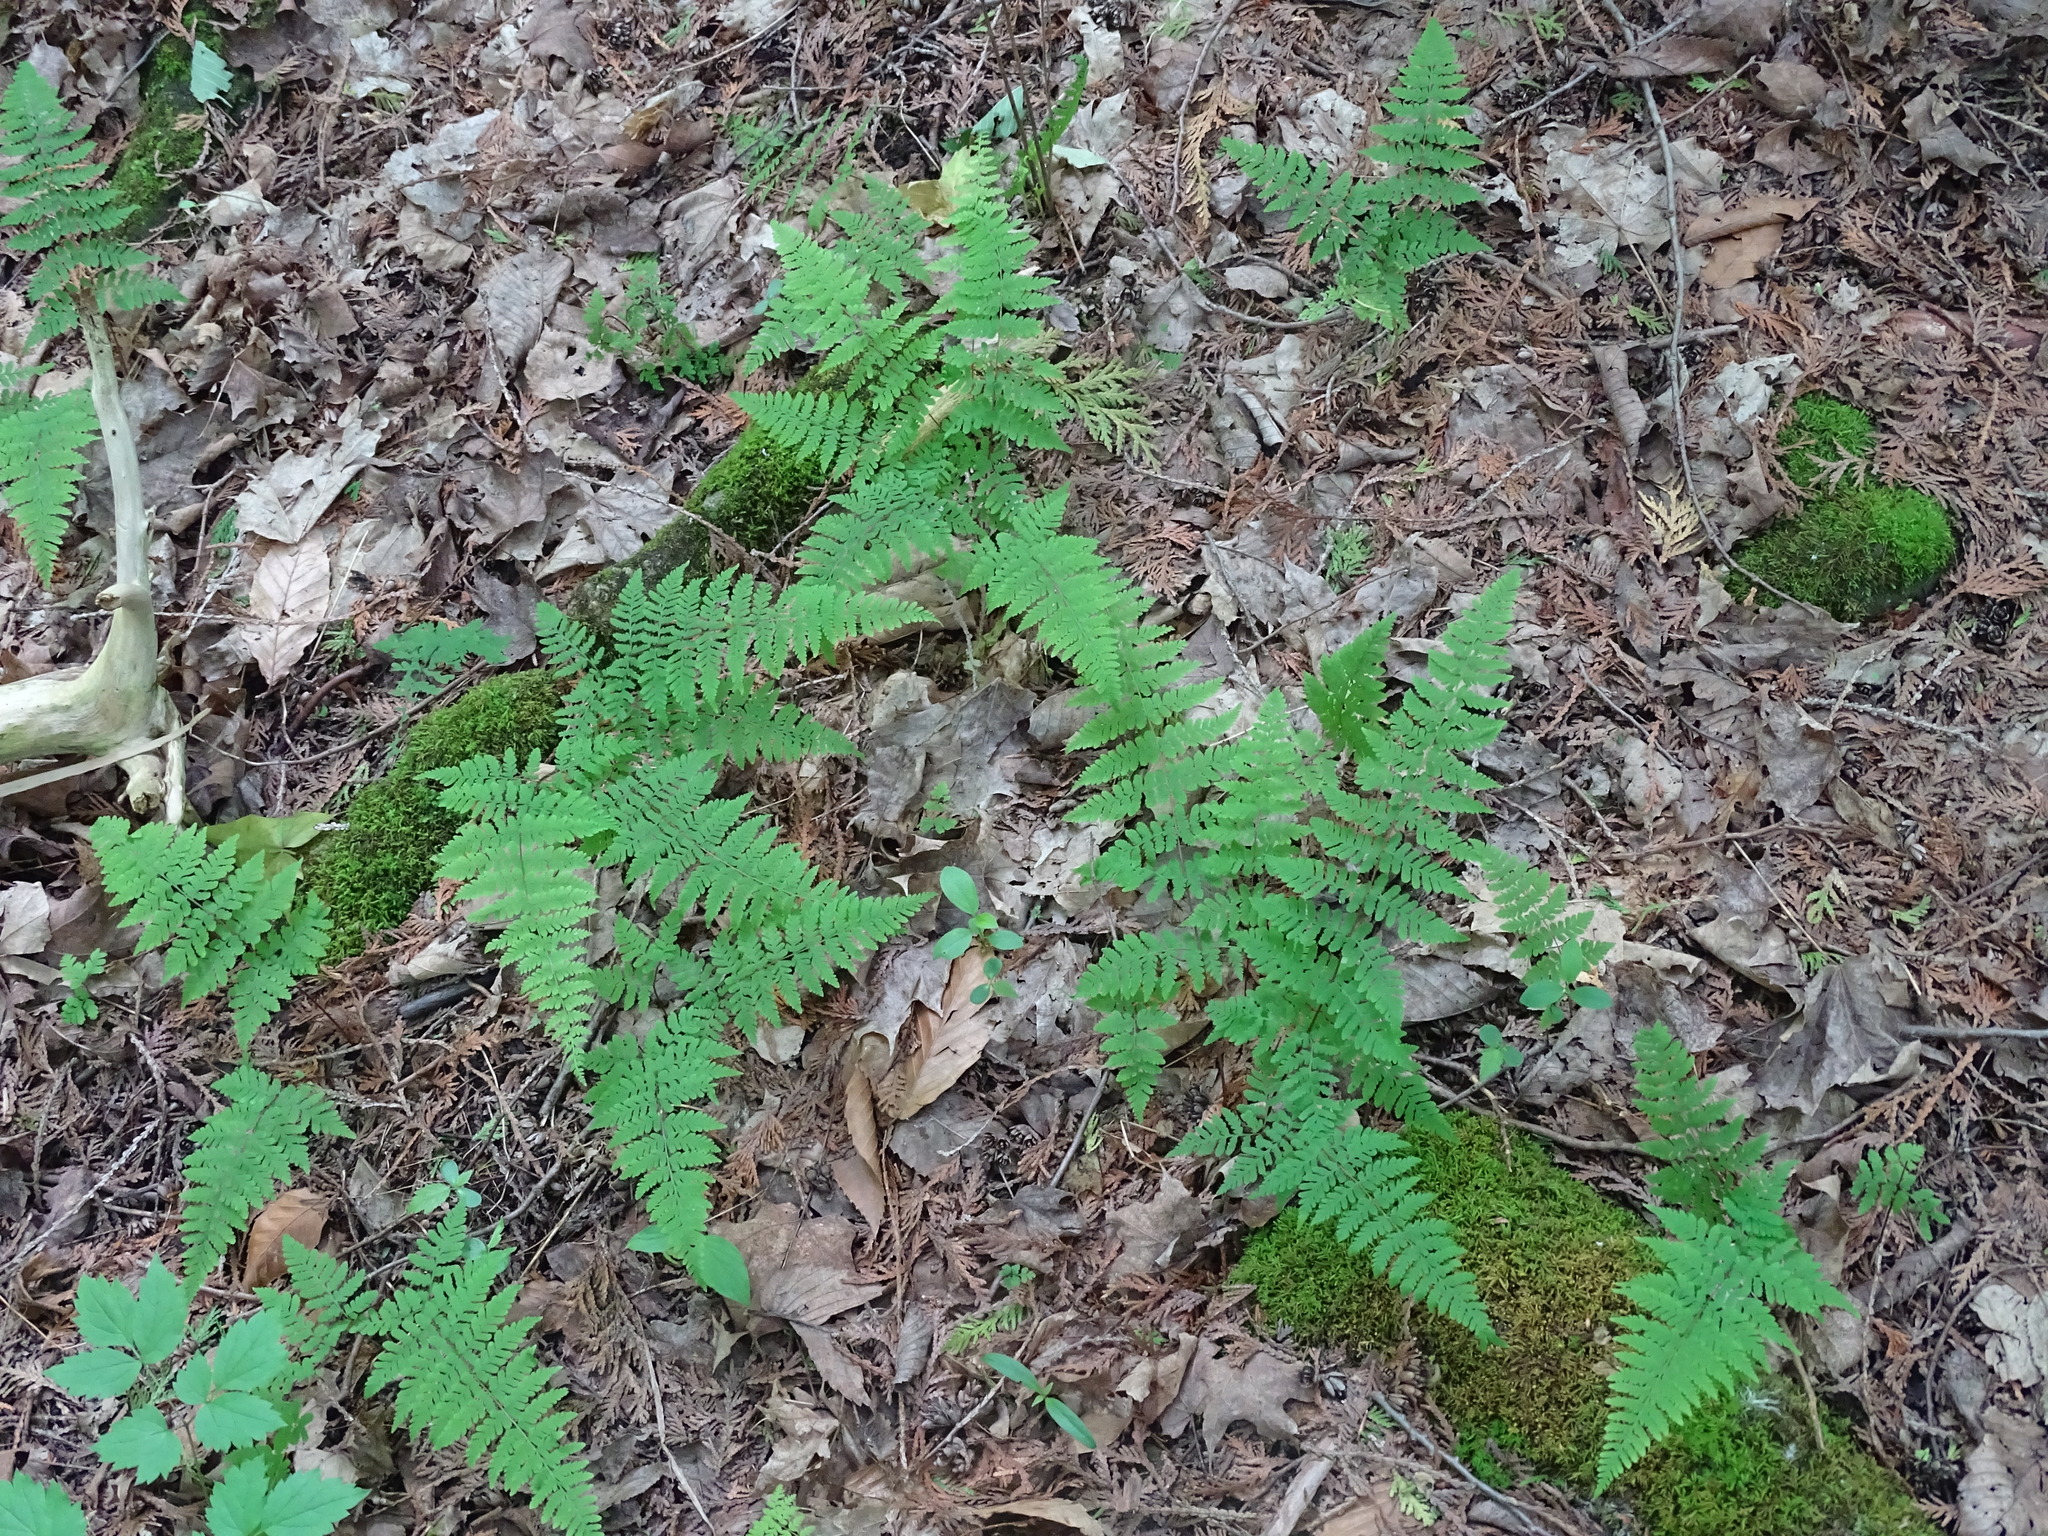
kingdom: Plantae
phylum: Tracheophyta
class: Polypodiopsida
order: Polypodiales
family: Cystopteridaceae
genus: Cystopteris
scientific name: Cystopteris bulbifera
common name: Bulblet bladder fern
